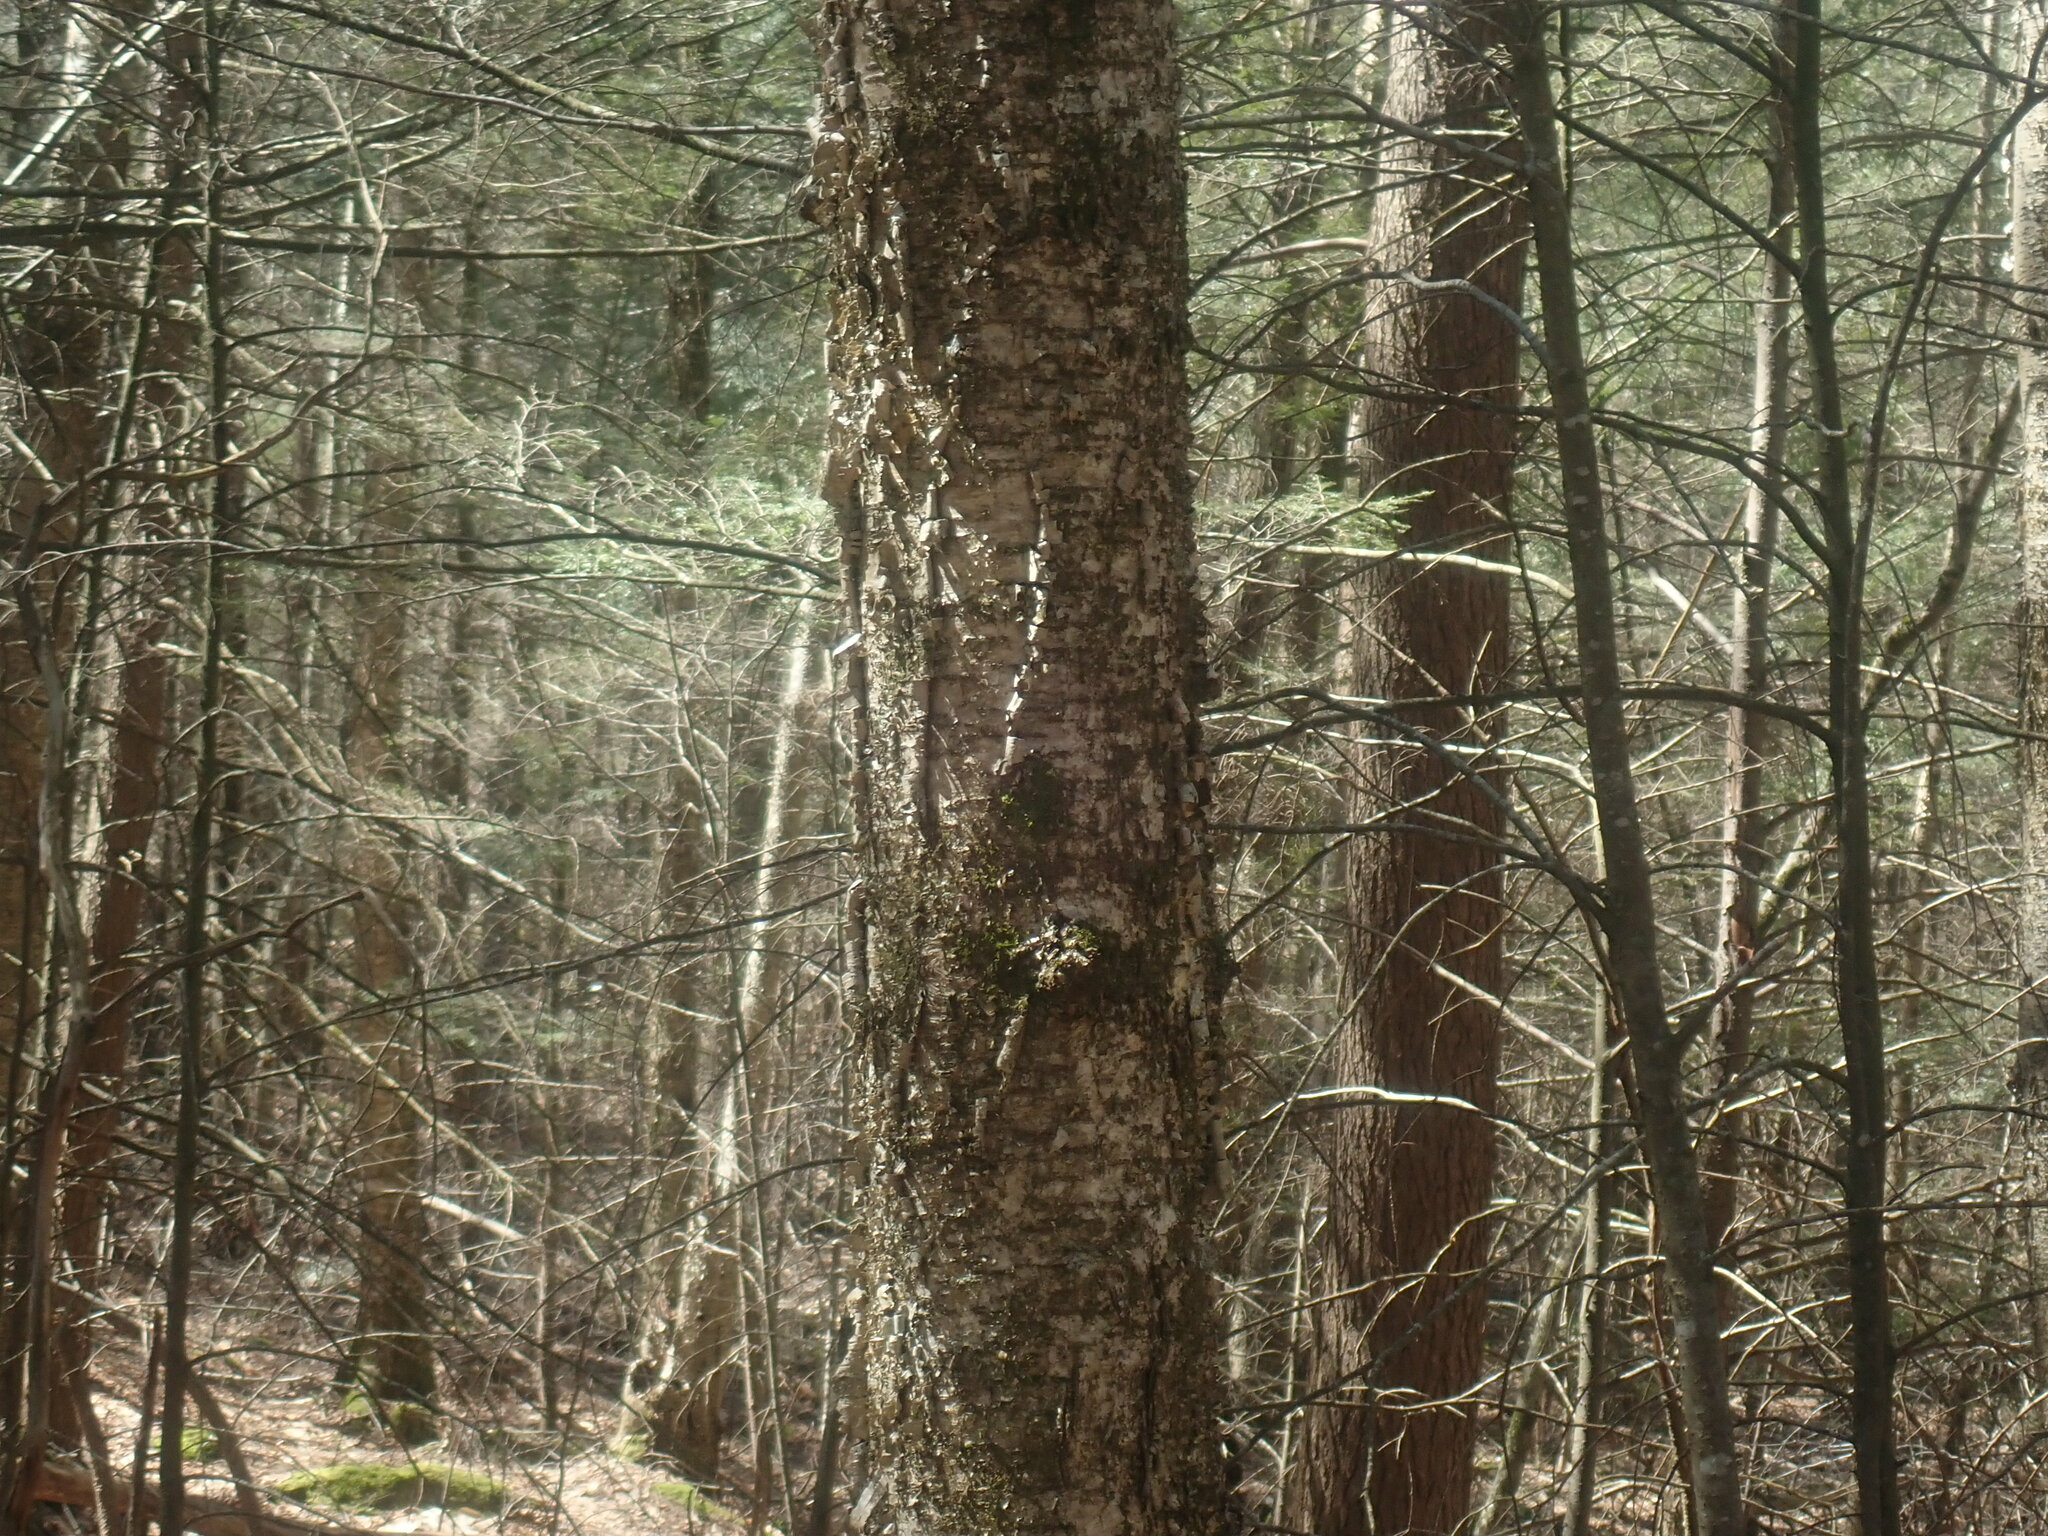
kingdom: Plantae
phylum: Tracheophyta
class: Magnoliopsida
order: Fagales
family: Betulaceae
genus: Betula
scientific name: Betula alleghaniensis
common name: Yellow birch
